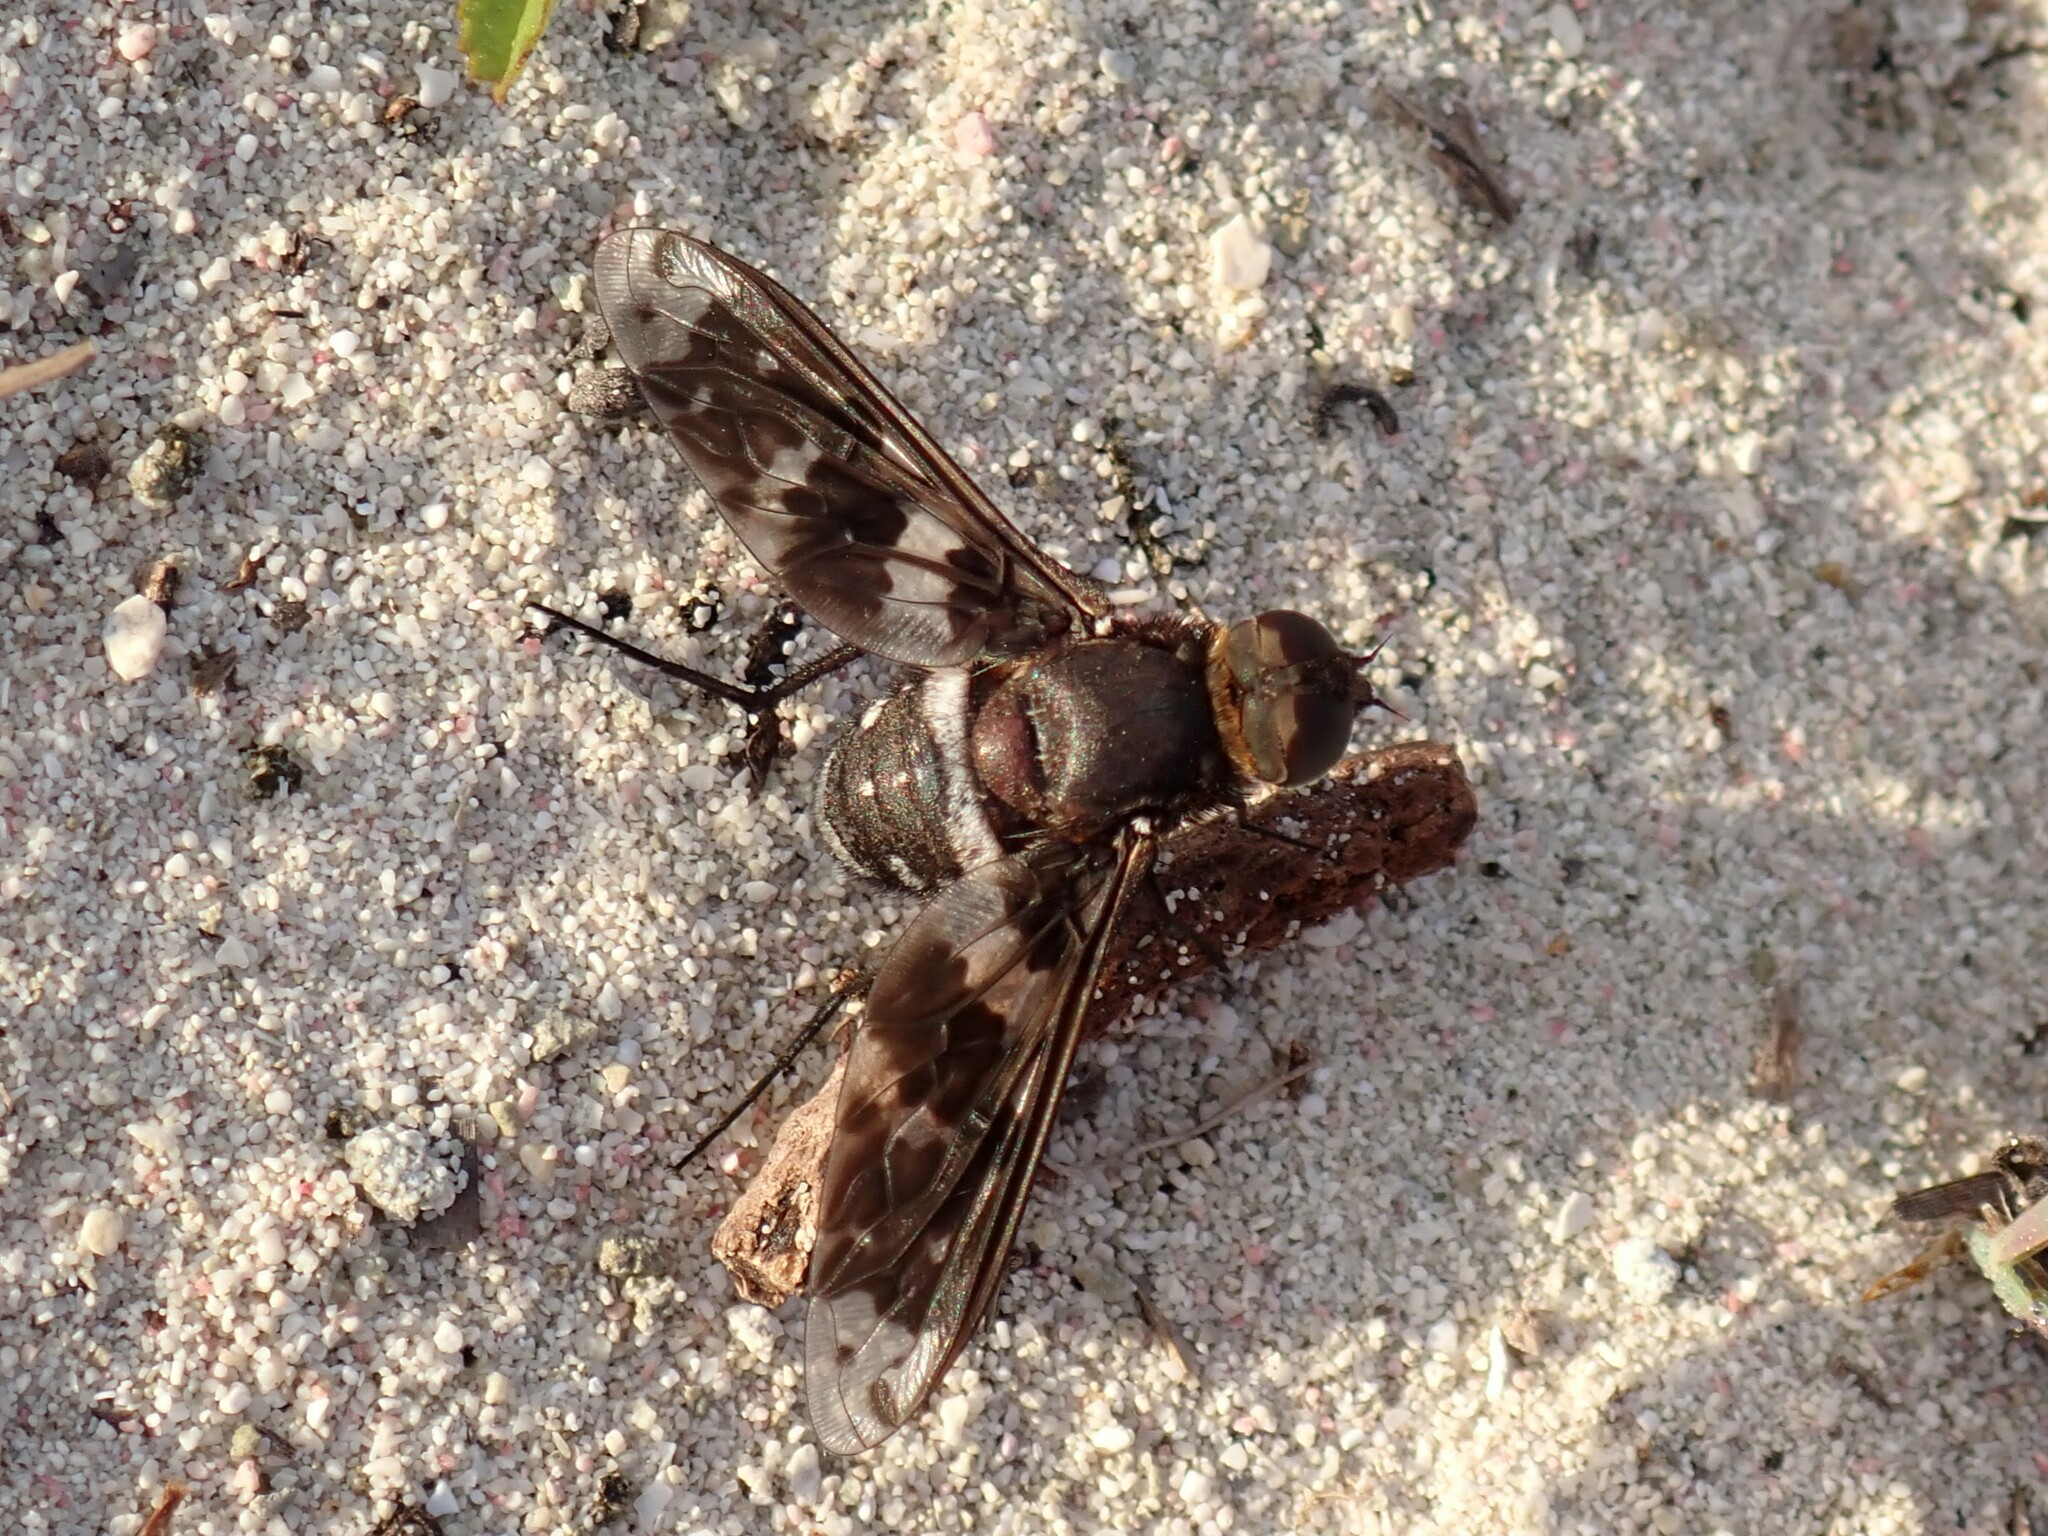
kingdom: Animalia
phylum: Arthropoda
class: Insecta
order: Diptera
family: Bombyliidae
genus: Nyia
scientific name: Nyia cerberus
